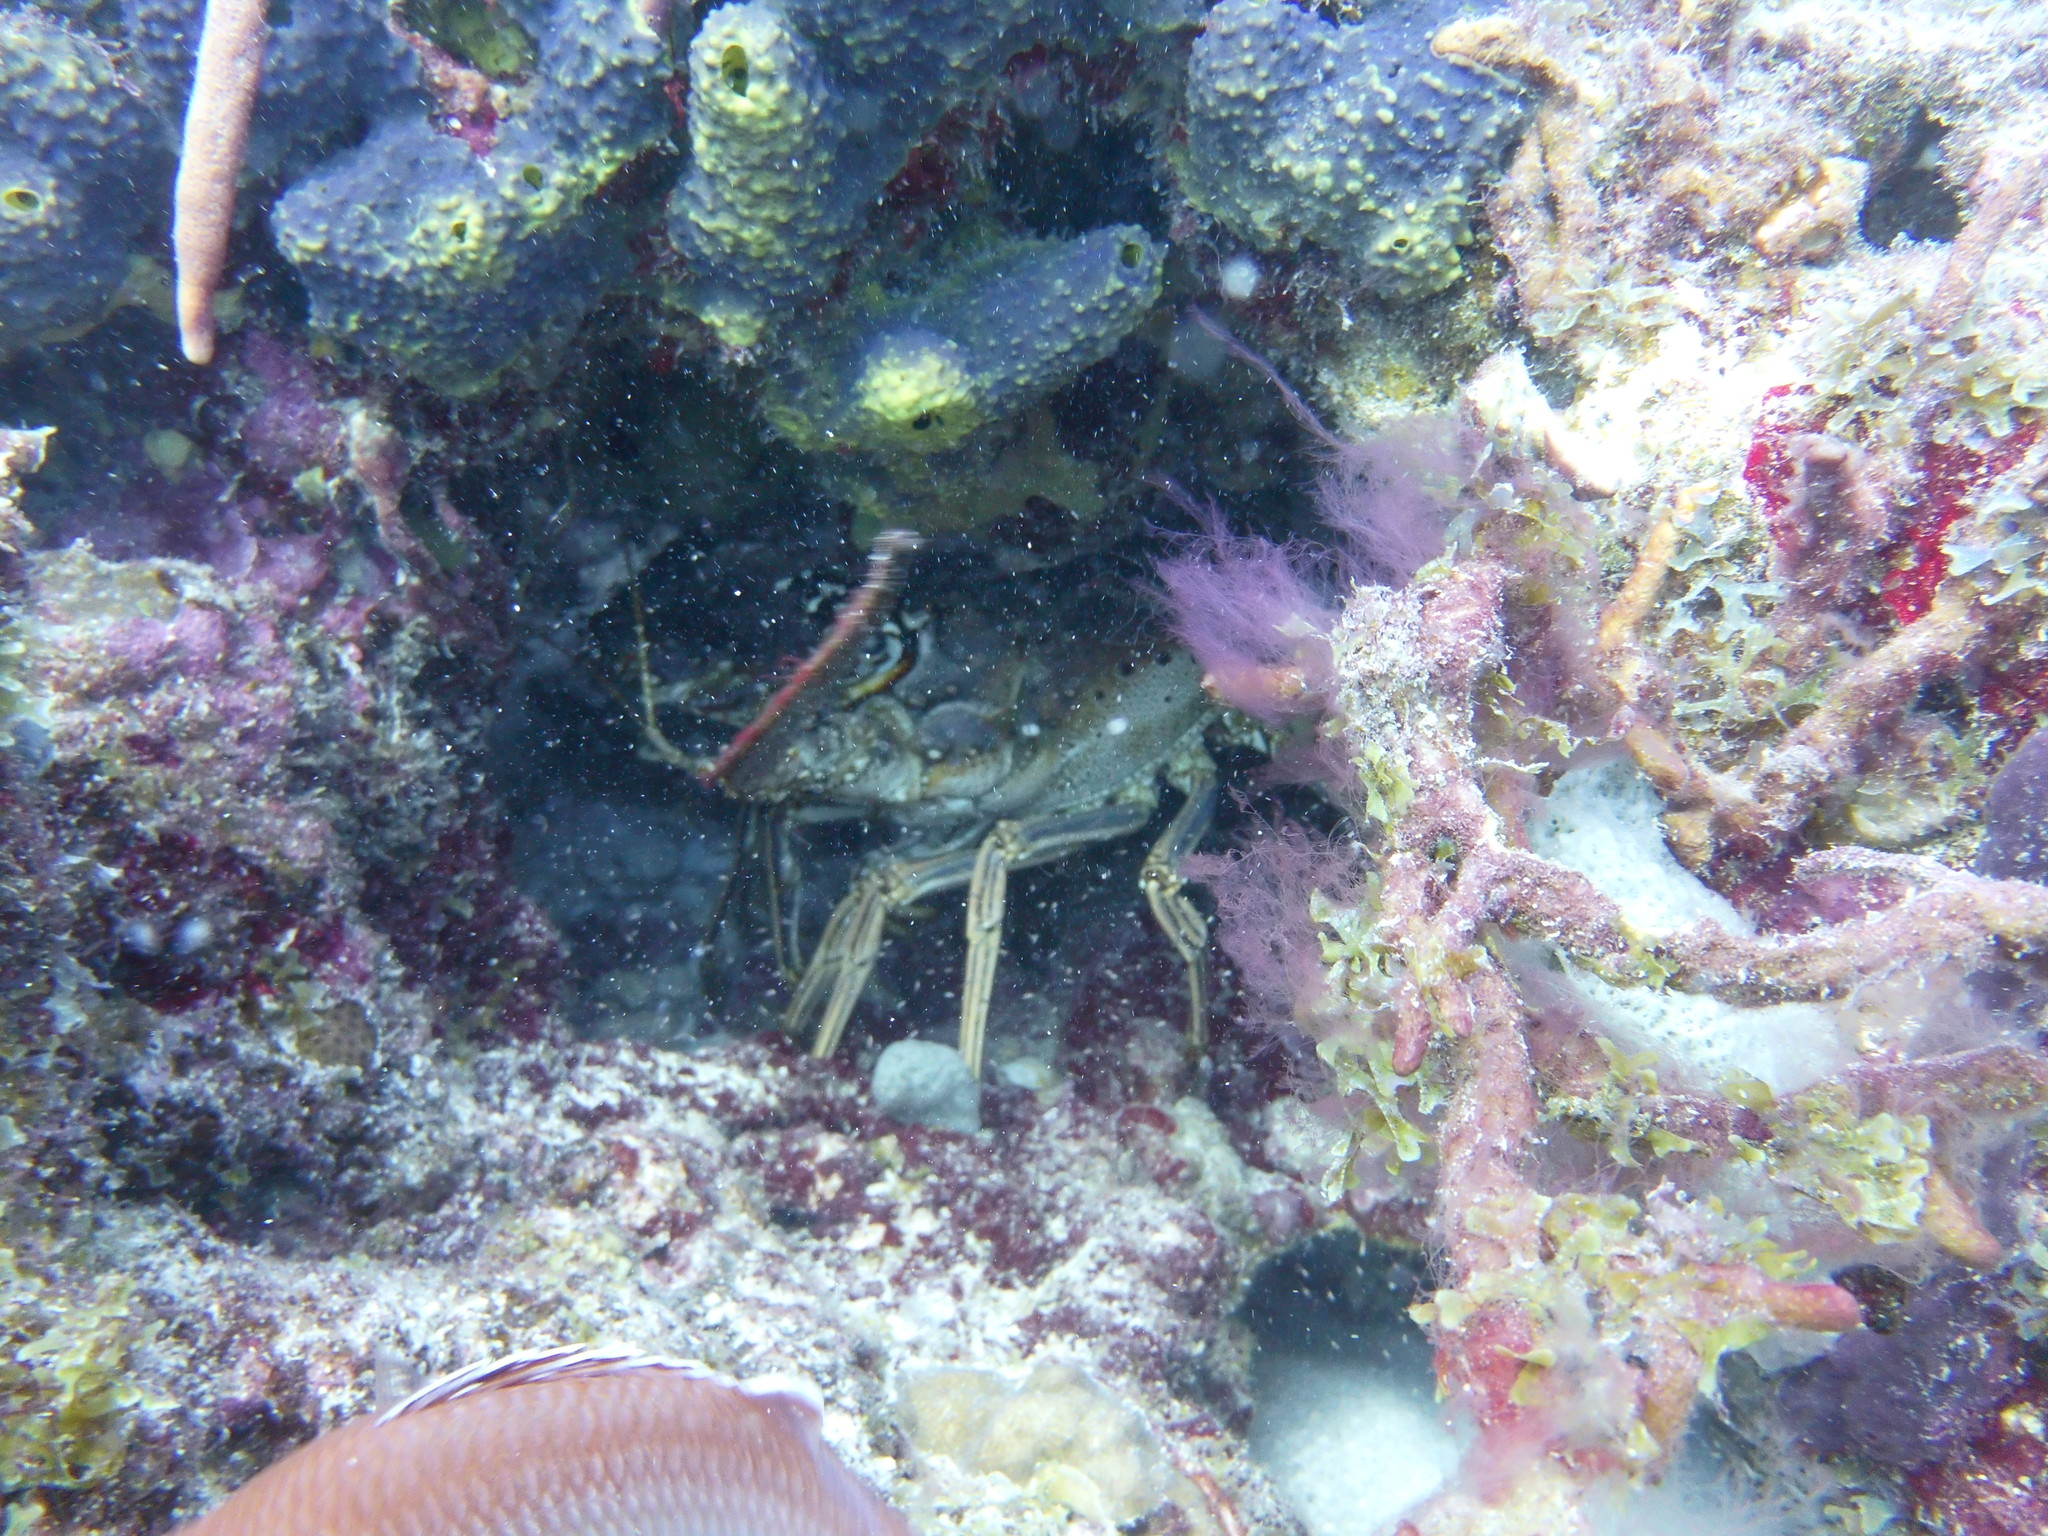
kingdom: Animalia
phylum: Arthropoda
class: Malacostraca
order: Decapoda
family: Palinuridae
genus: Panulirus
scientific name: Panulirus argus
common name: Caribbean spiny lobster
